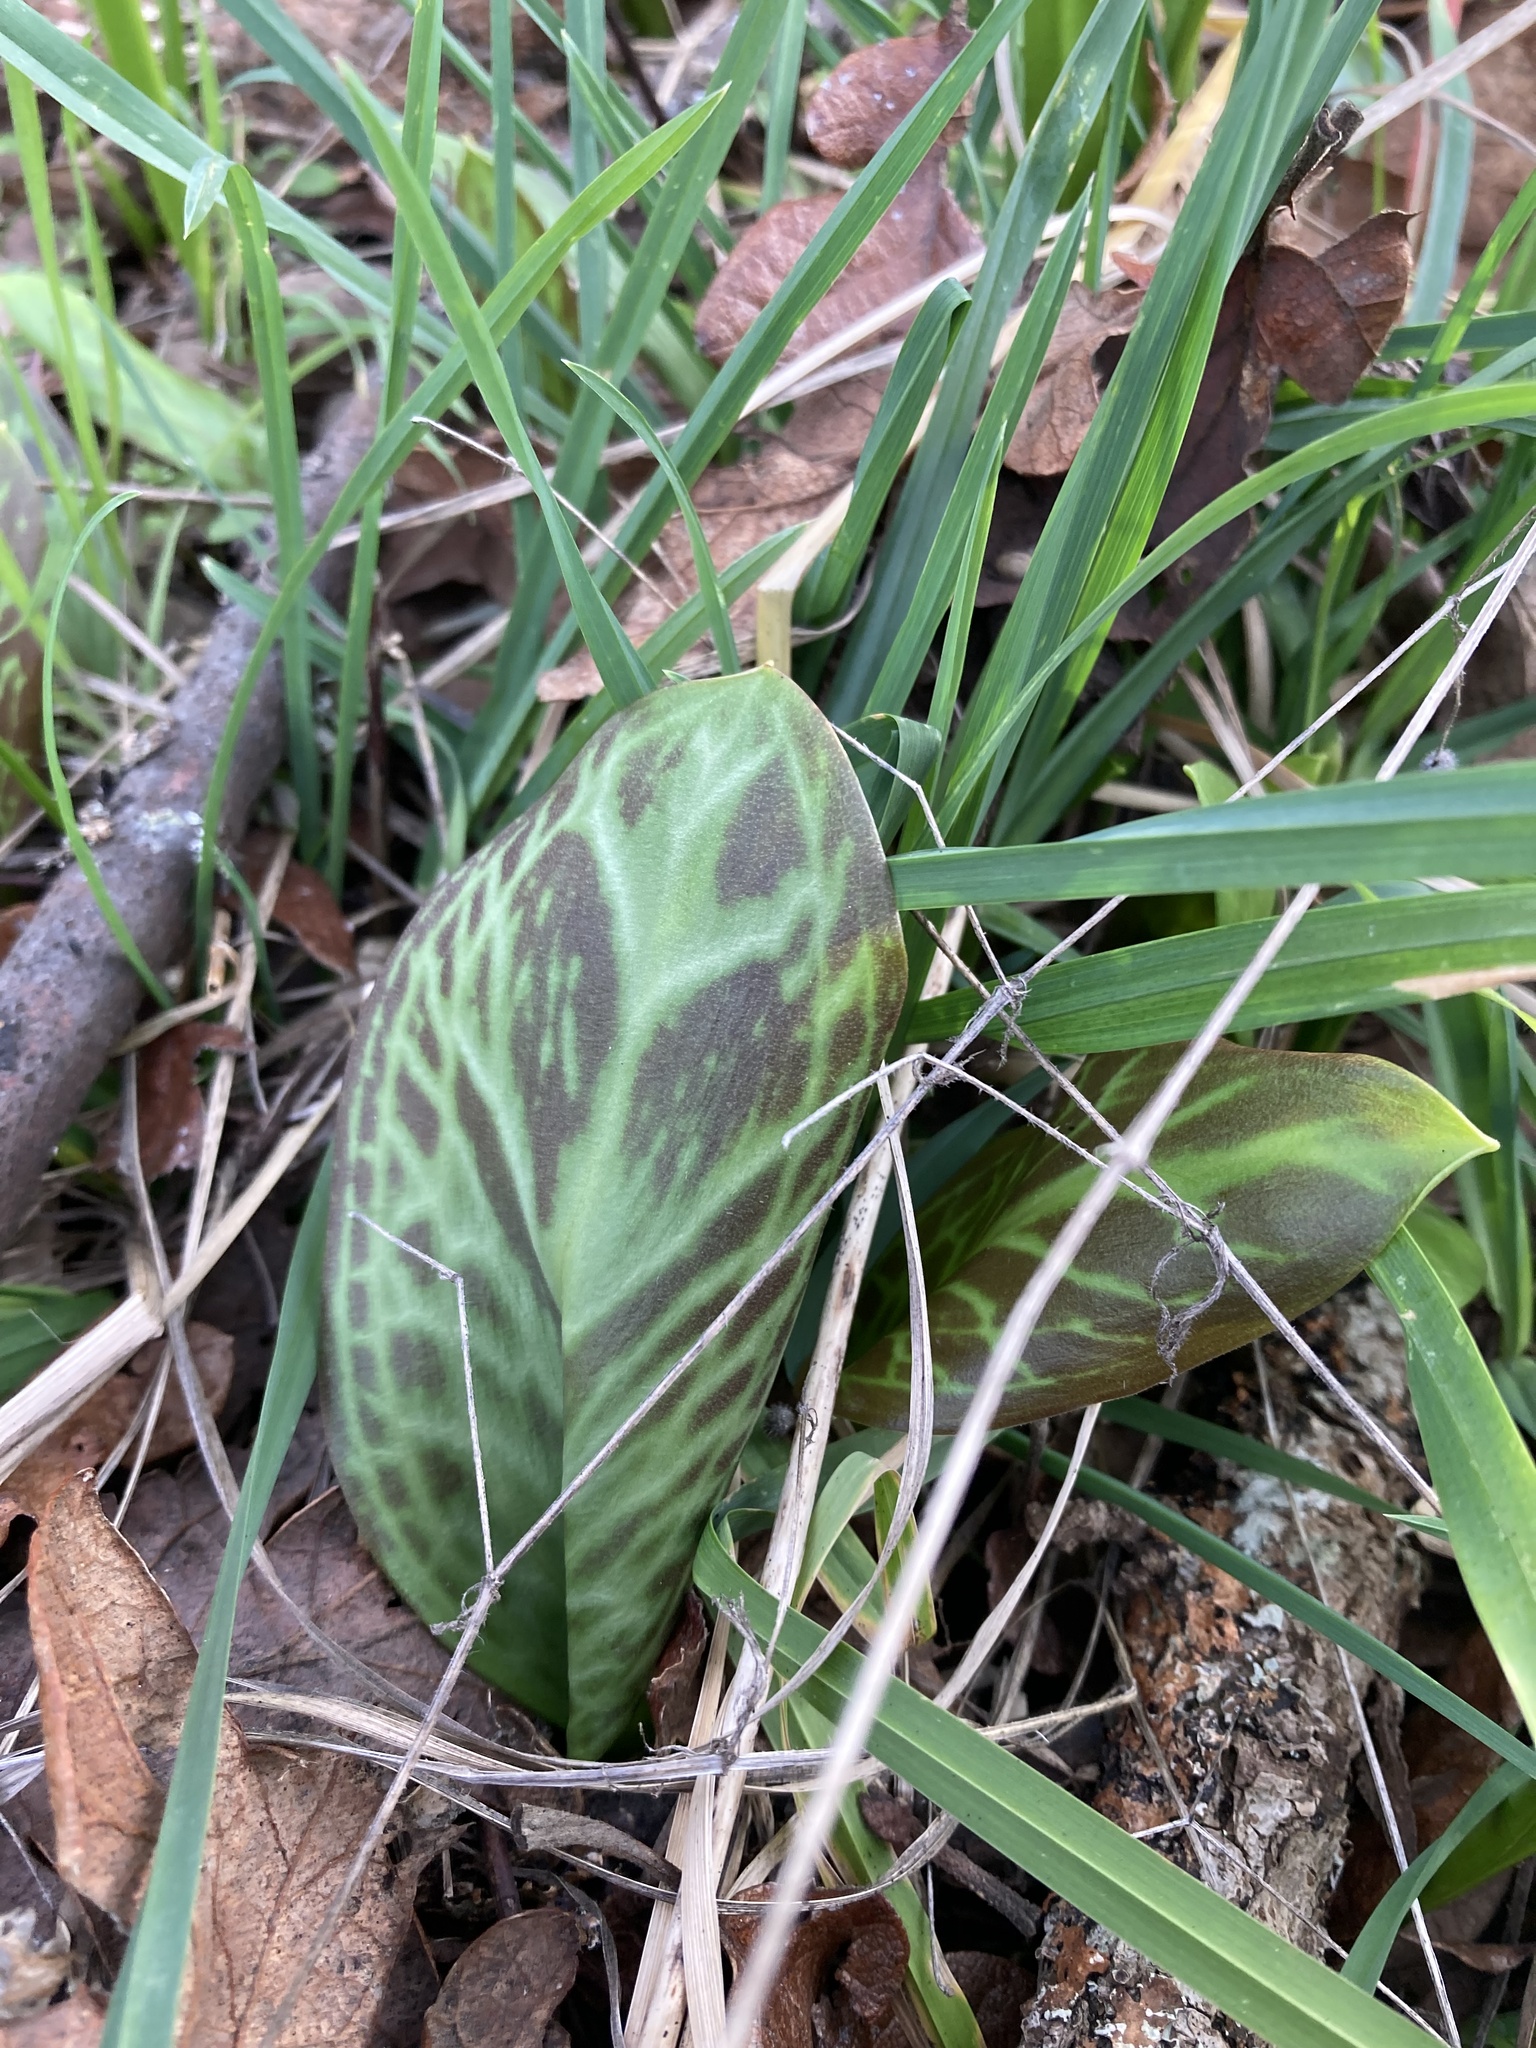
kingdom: Plantae
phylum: Tracheophyta
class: Liliopsida
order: Liliales
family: Liliaceae
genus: Erythronium
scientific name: Erythronium oregonum
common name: Giant adder's-tongue
